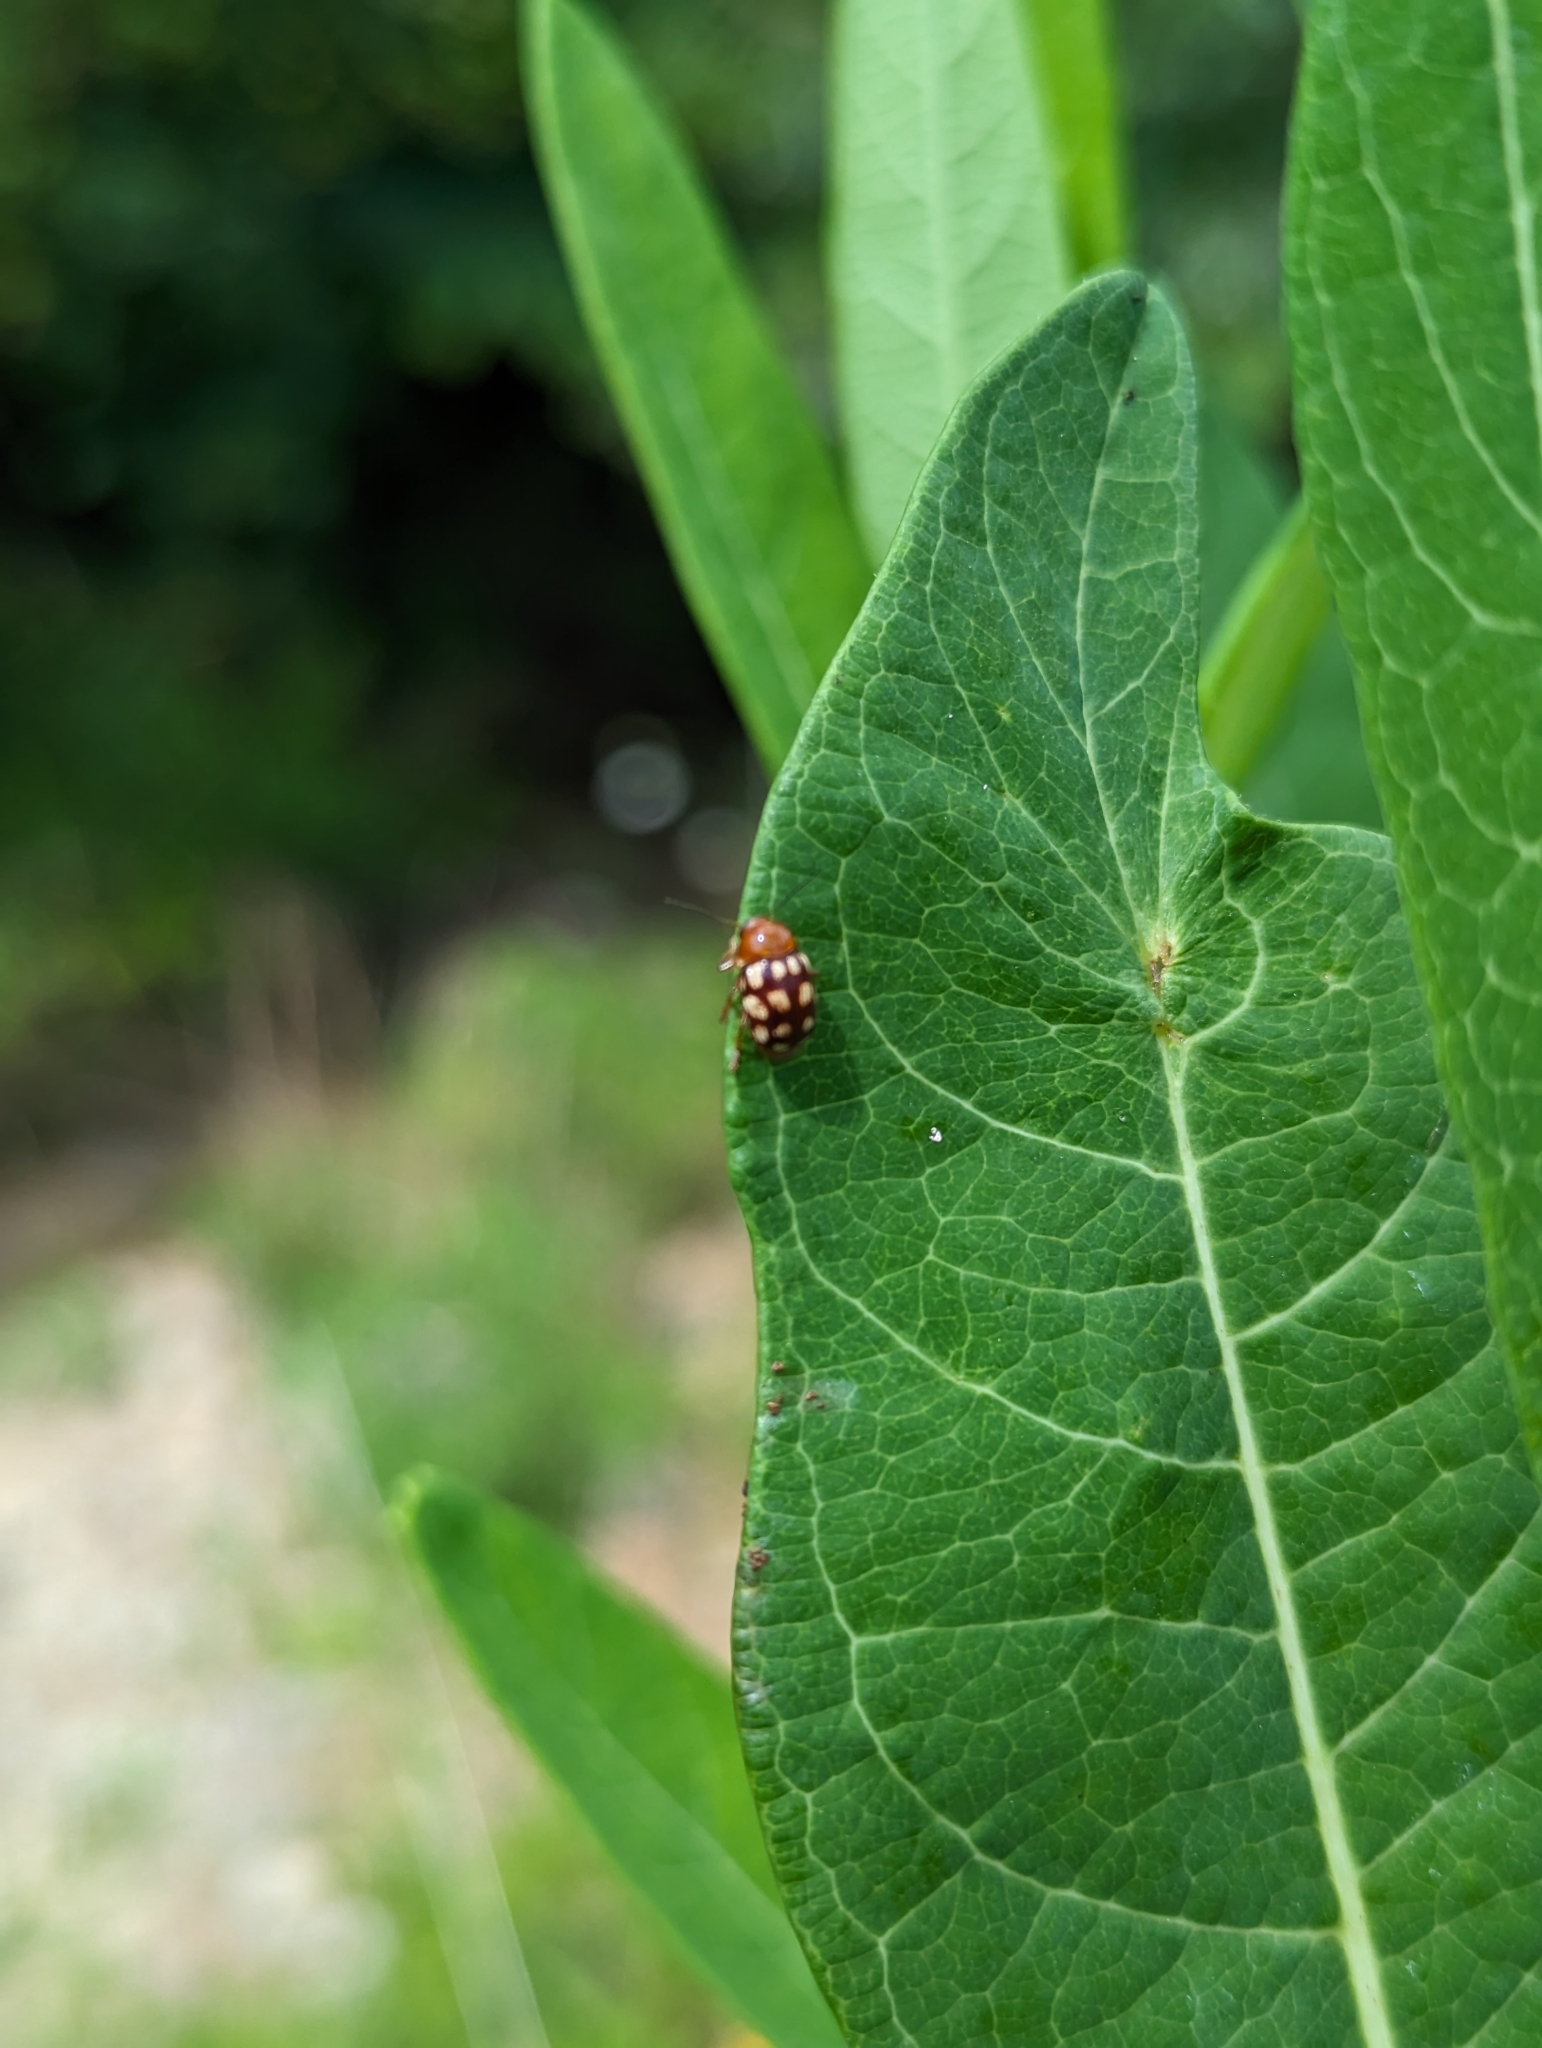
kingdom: Animalia
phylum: Arthropoda
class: Insecta
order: Coleoptera
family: Chrysomelidae
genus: Cryptocephalus
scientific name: Cryptocephalus guttulatus
